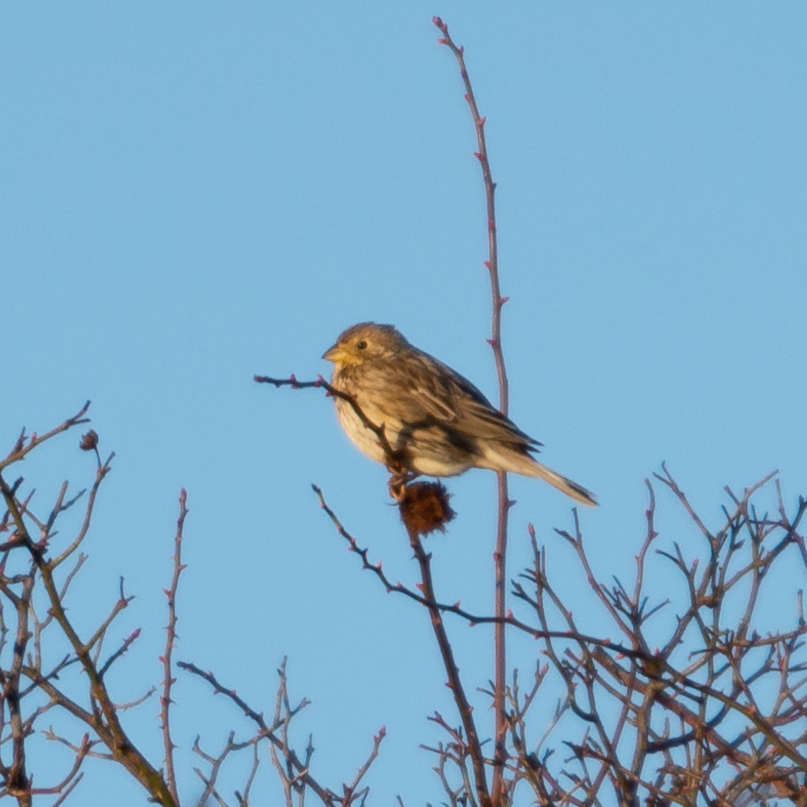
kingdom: Animalia
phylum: Chordata
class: Aves
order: Passeriformes
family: Emberizidae
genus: Emberiza
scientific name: Emberiza calandra
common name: Corn bunting
